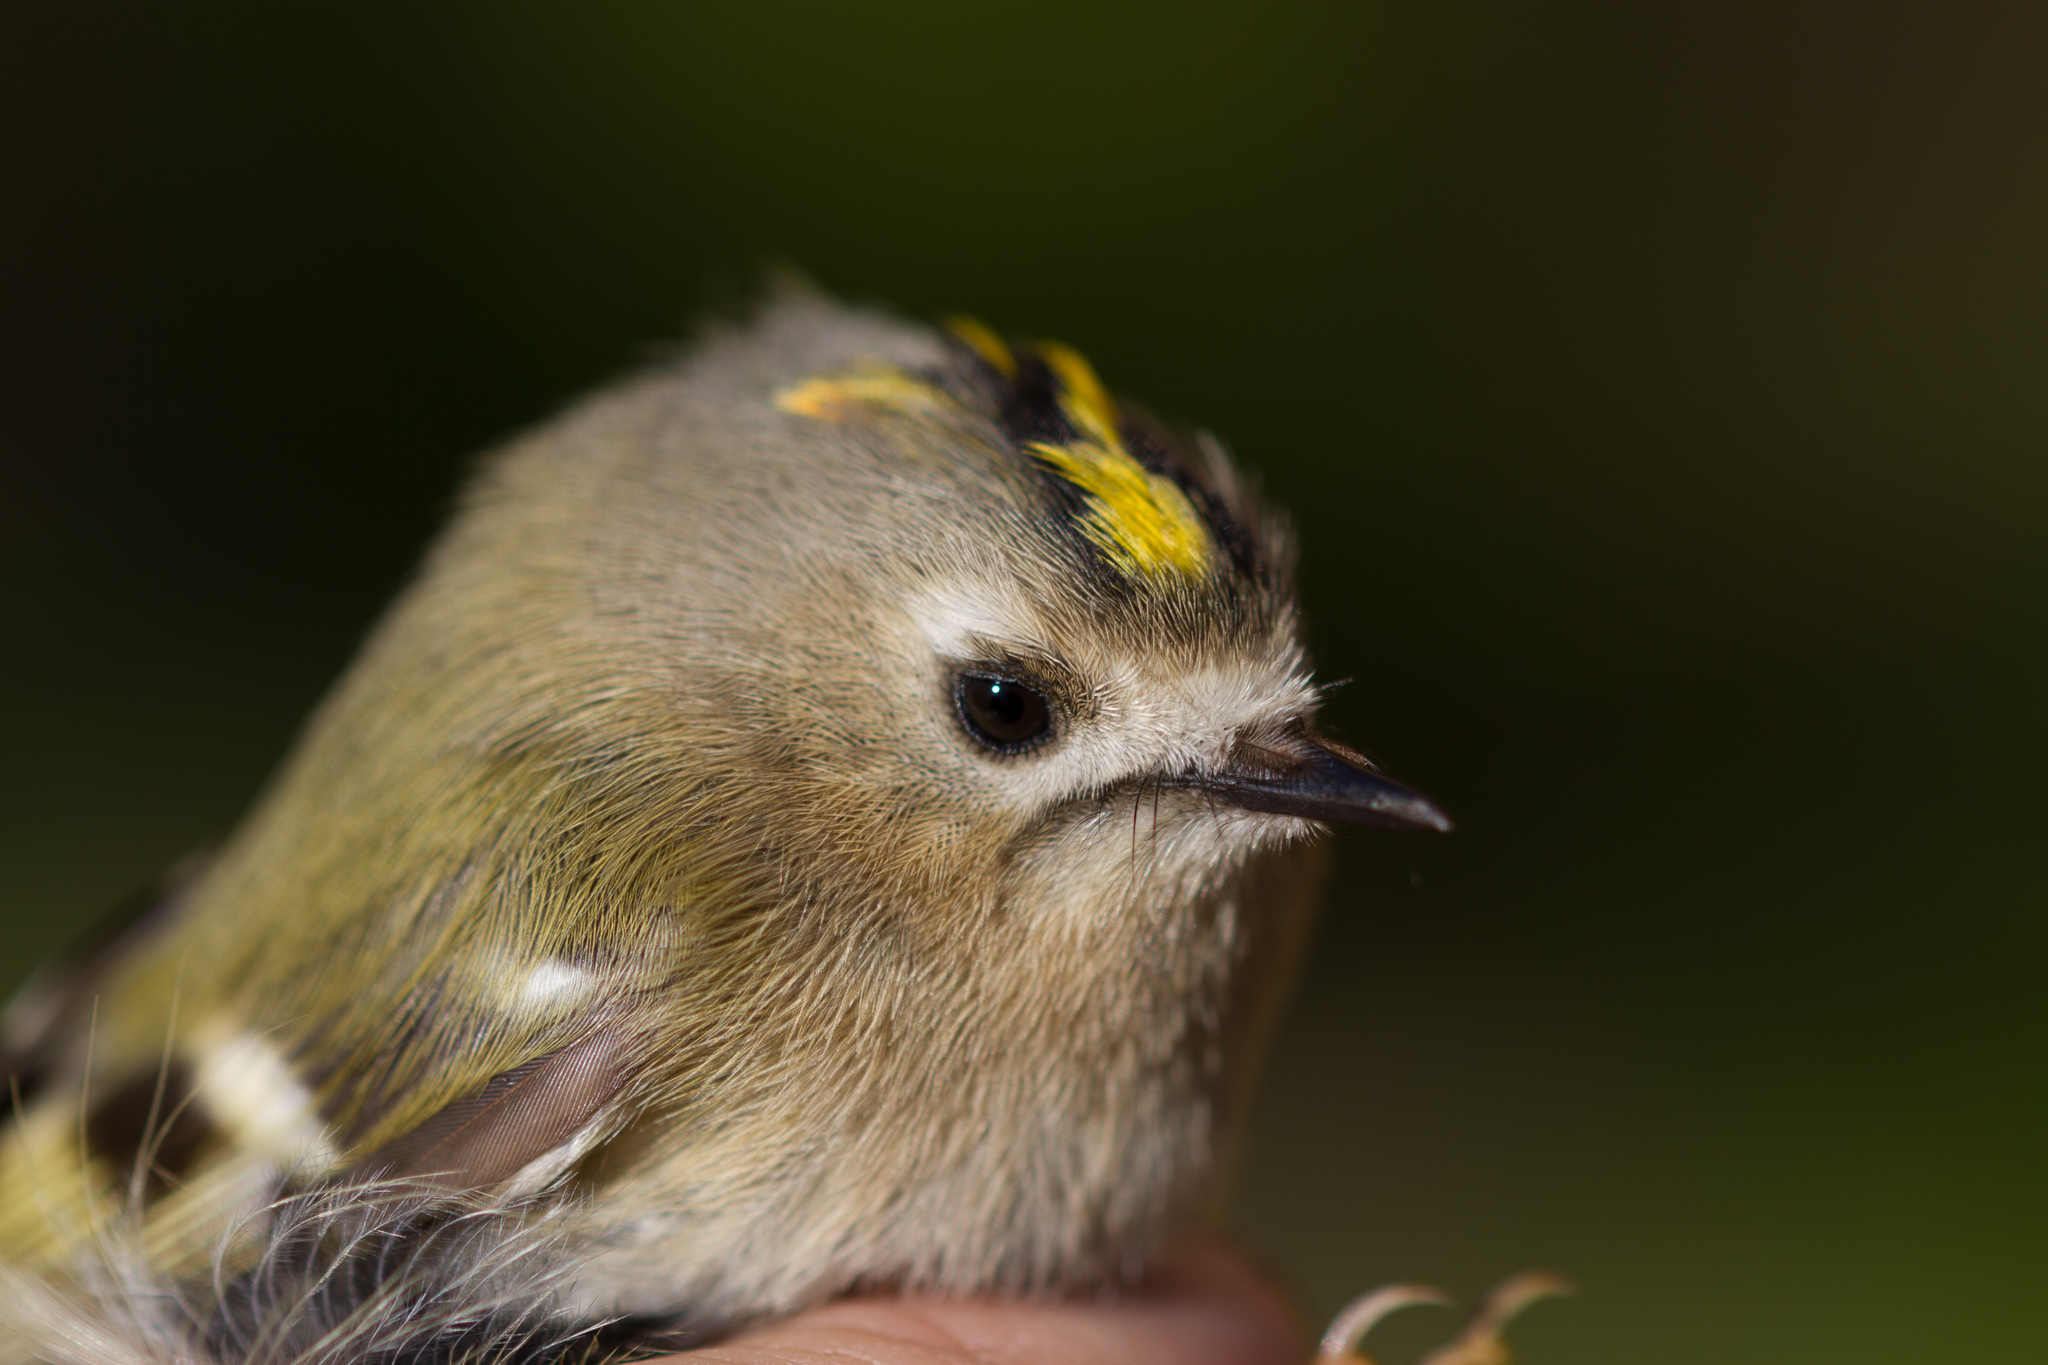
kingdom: Animalia
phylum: Chordata
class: Aves
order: Passeriformes
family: Regulidae
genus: Regulus
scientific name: Regulus regulus
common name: Goldcrest
